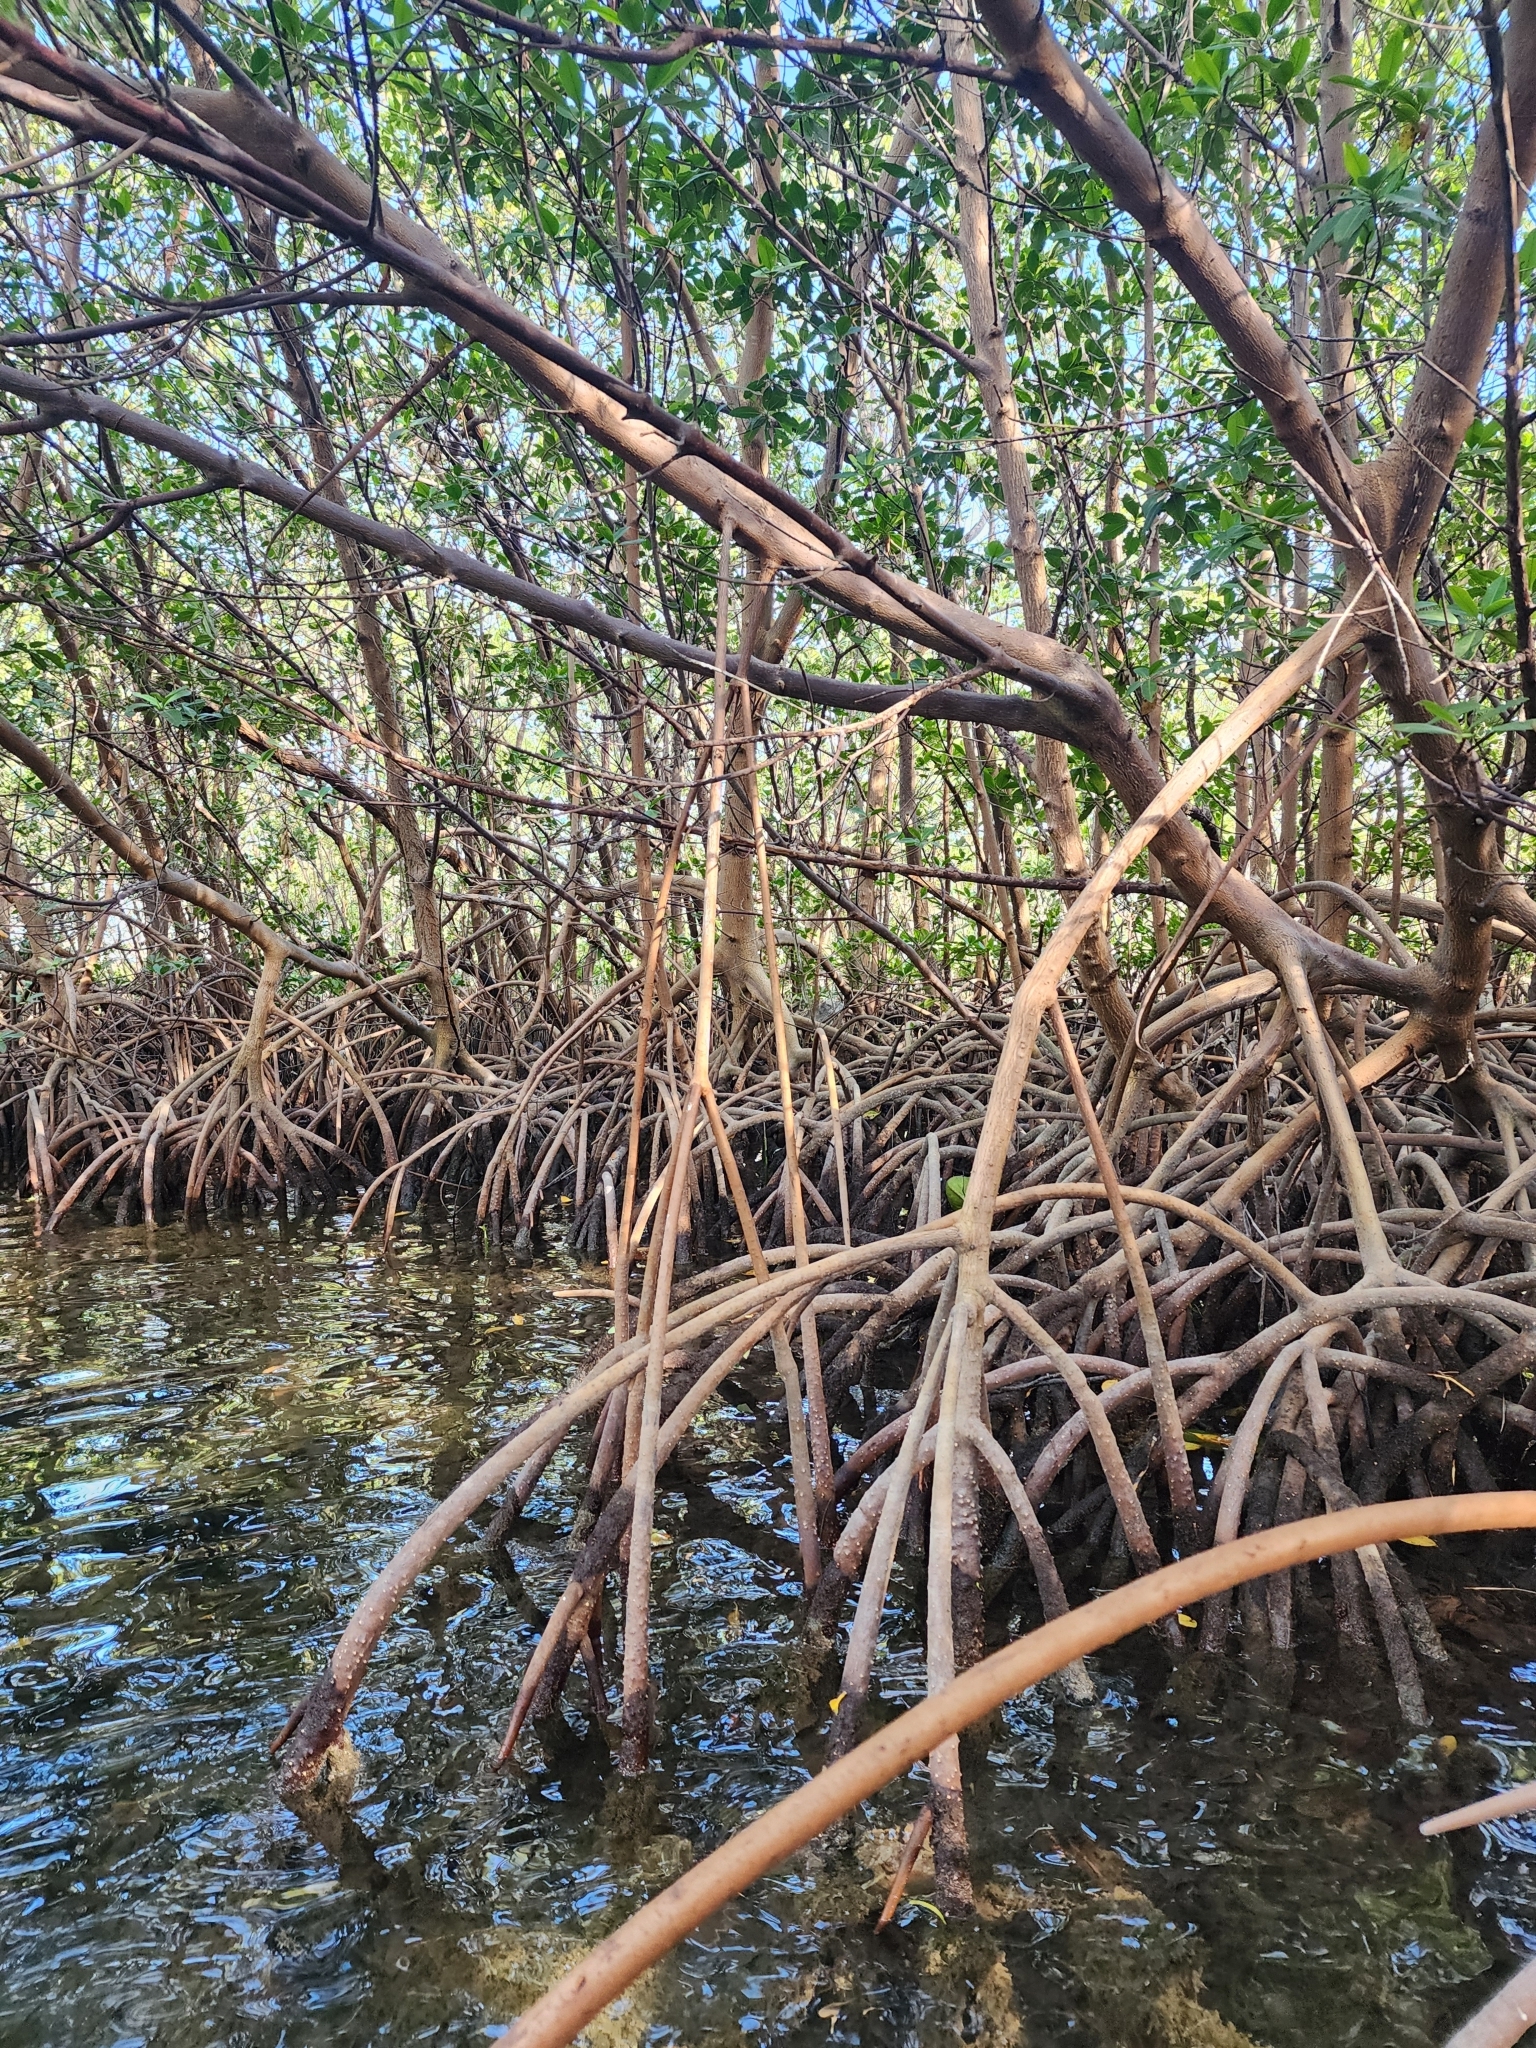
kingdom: Plantae
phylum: Tracheophyta
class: Magnoliopsida
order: Malpighiales
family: Rhizophoraceae
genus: Rhizophora
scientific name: Rhizophora mangle
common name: Red mangrove
